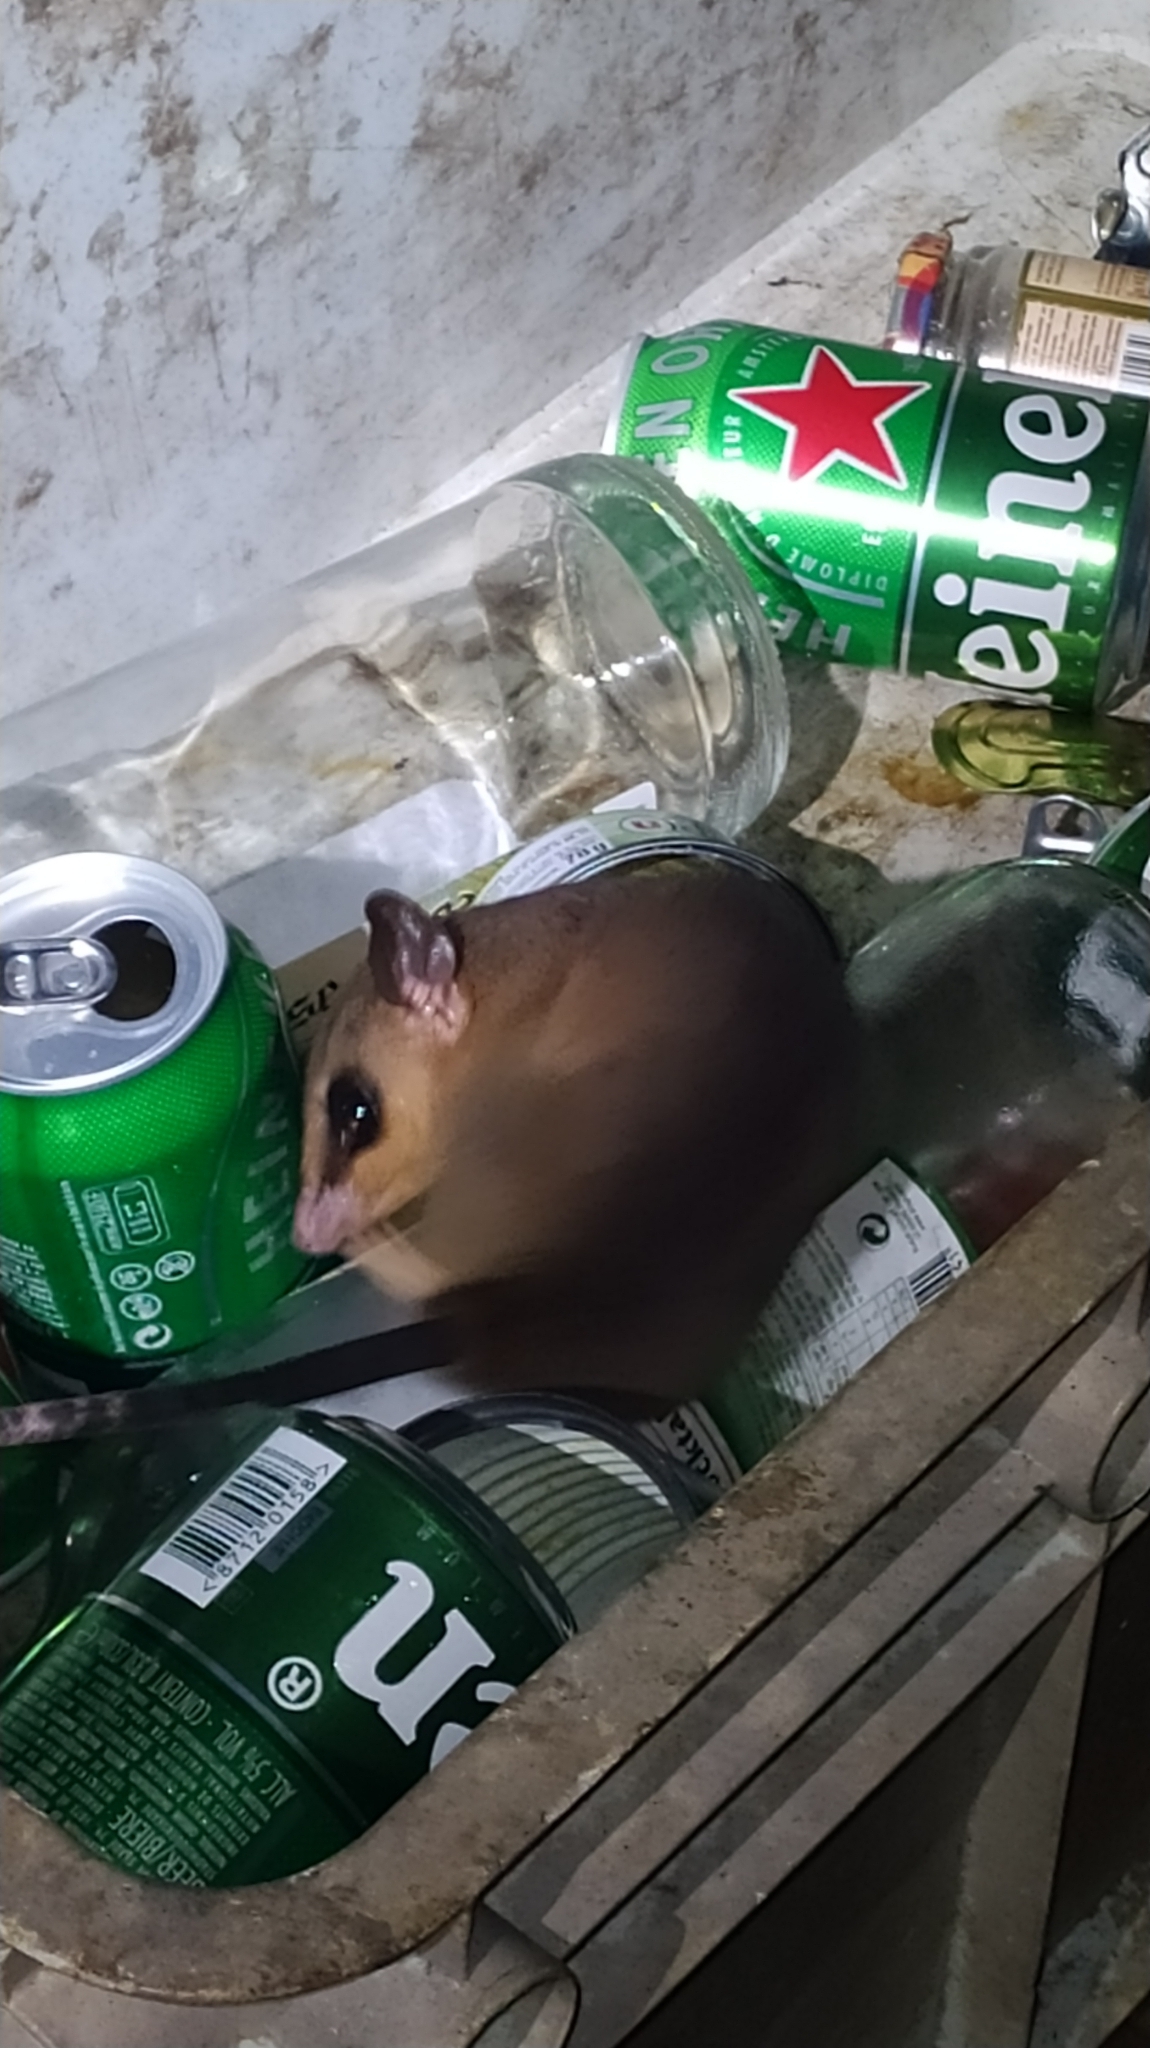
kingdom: Animalia
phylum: Chordata
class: Mammalia
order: Didelphimorphia
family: Didelphidae
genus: Marmosa
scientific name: Marmosa murina
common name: Linnaeus's mouse opossum
